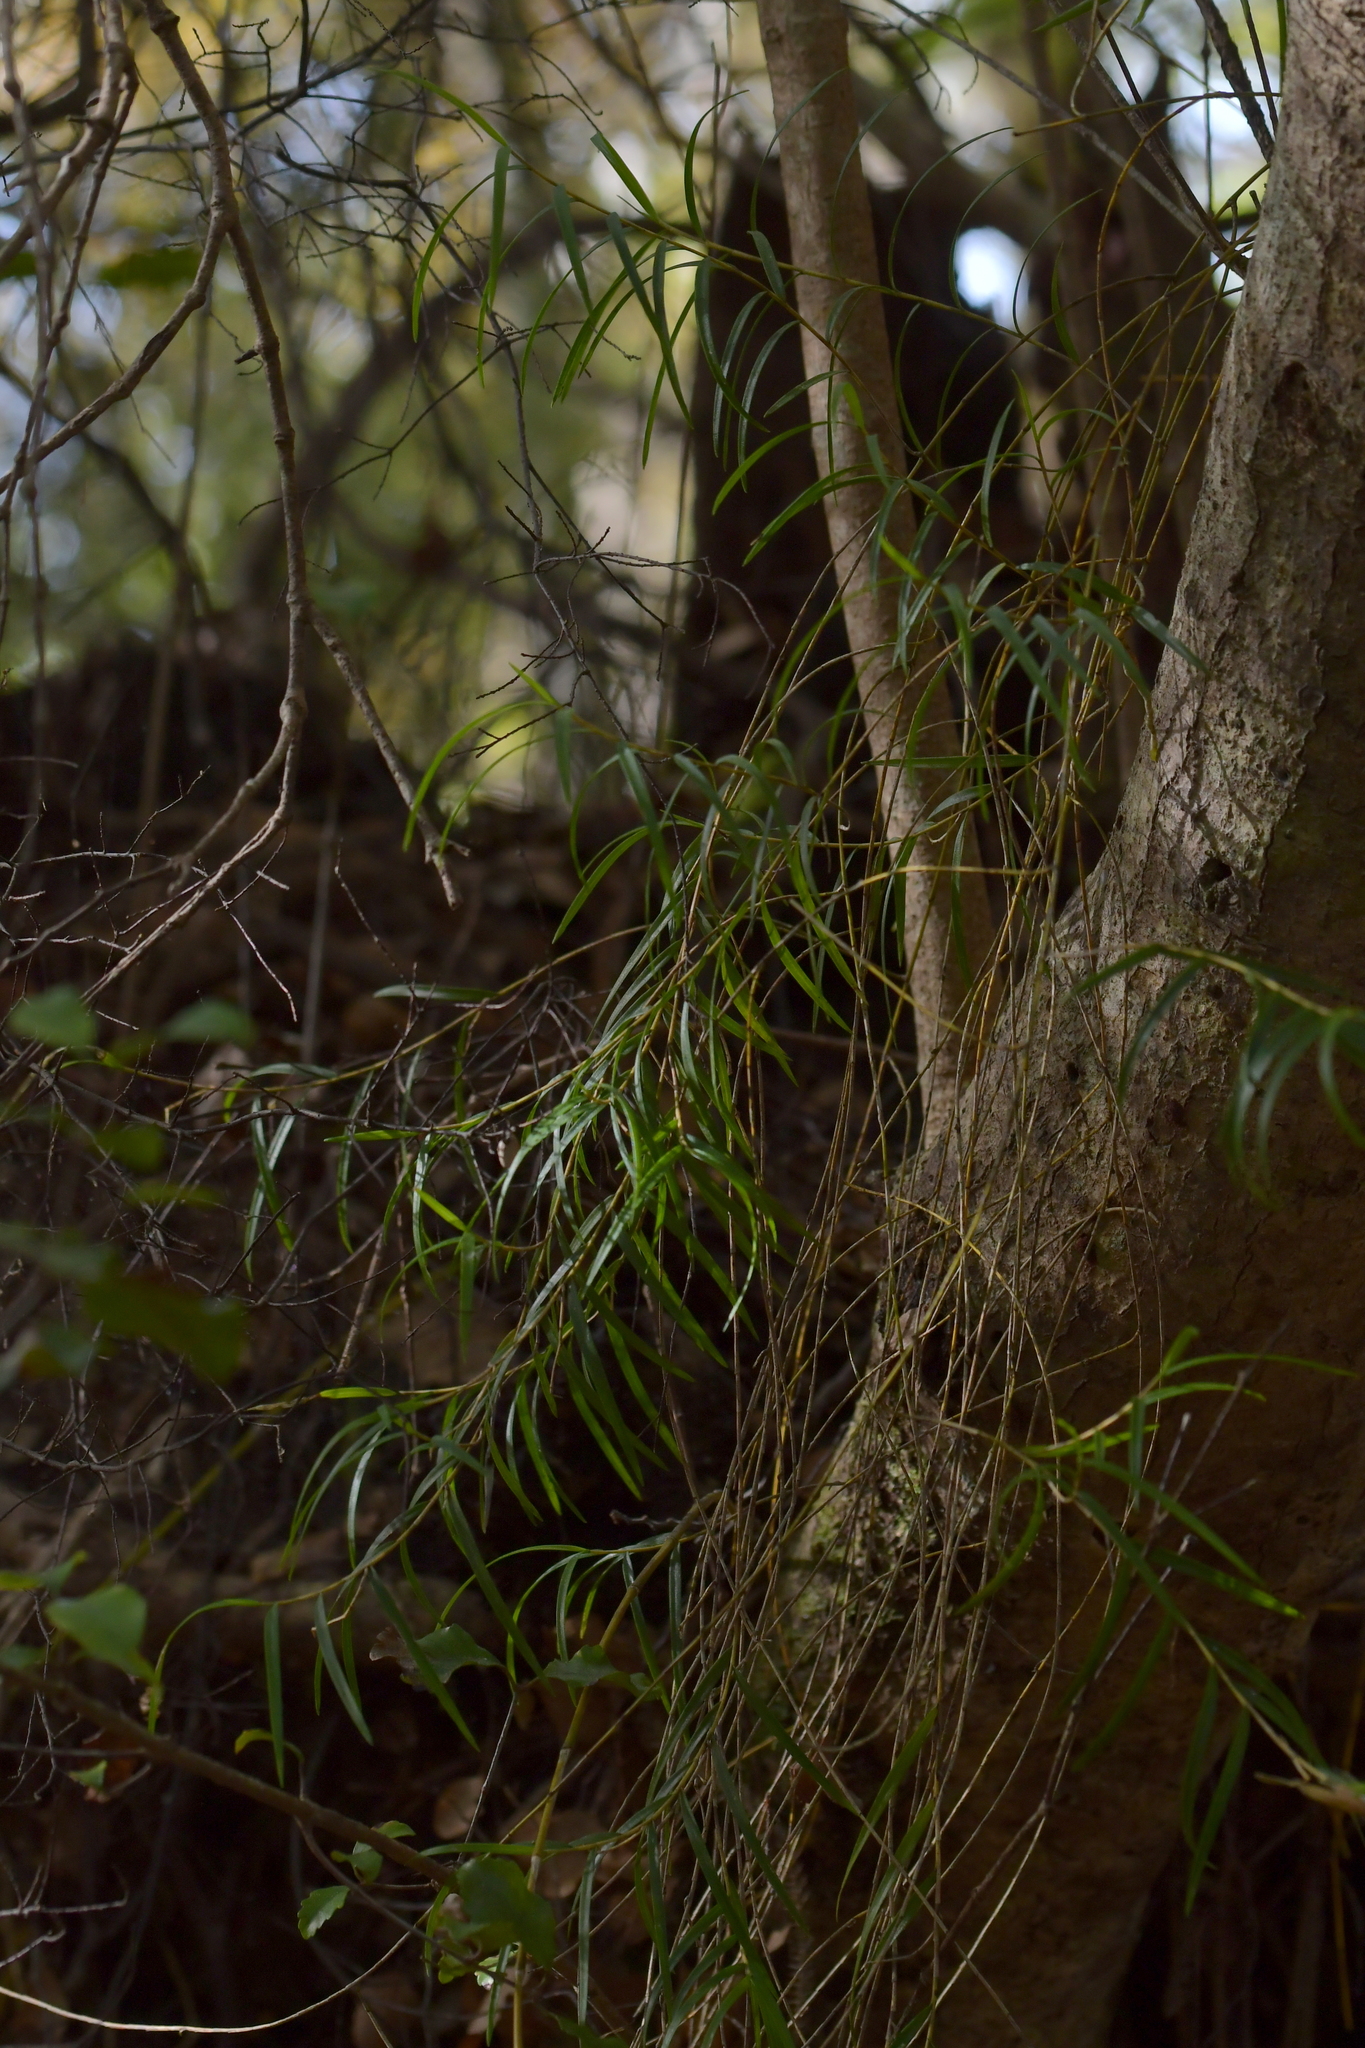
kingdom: Plantae
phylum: Tracheophyta
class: Liliopsida
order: Asparagales
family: Orchidaceae
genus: Dendrobium
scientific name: Dendrobium cunninghamii
